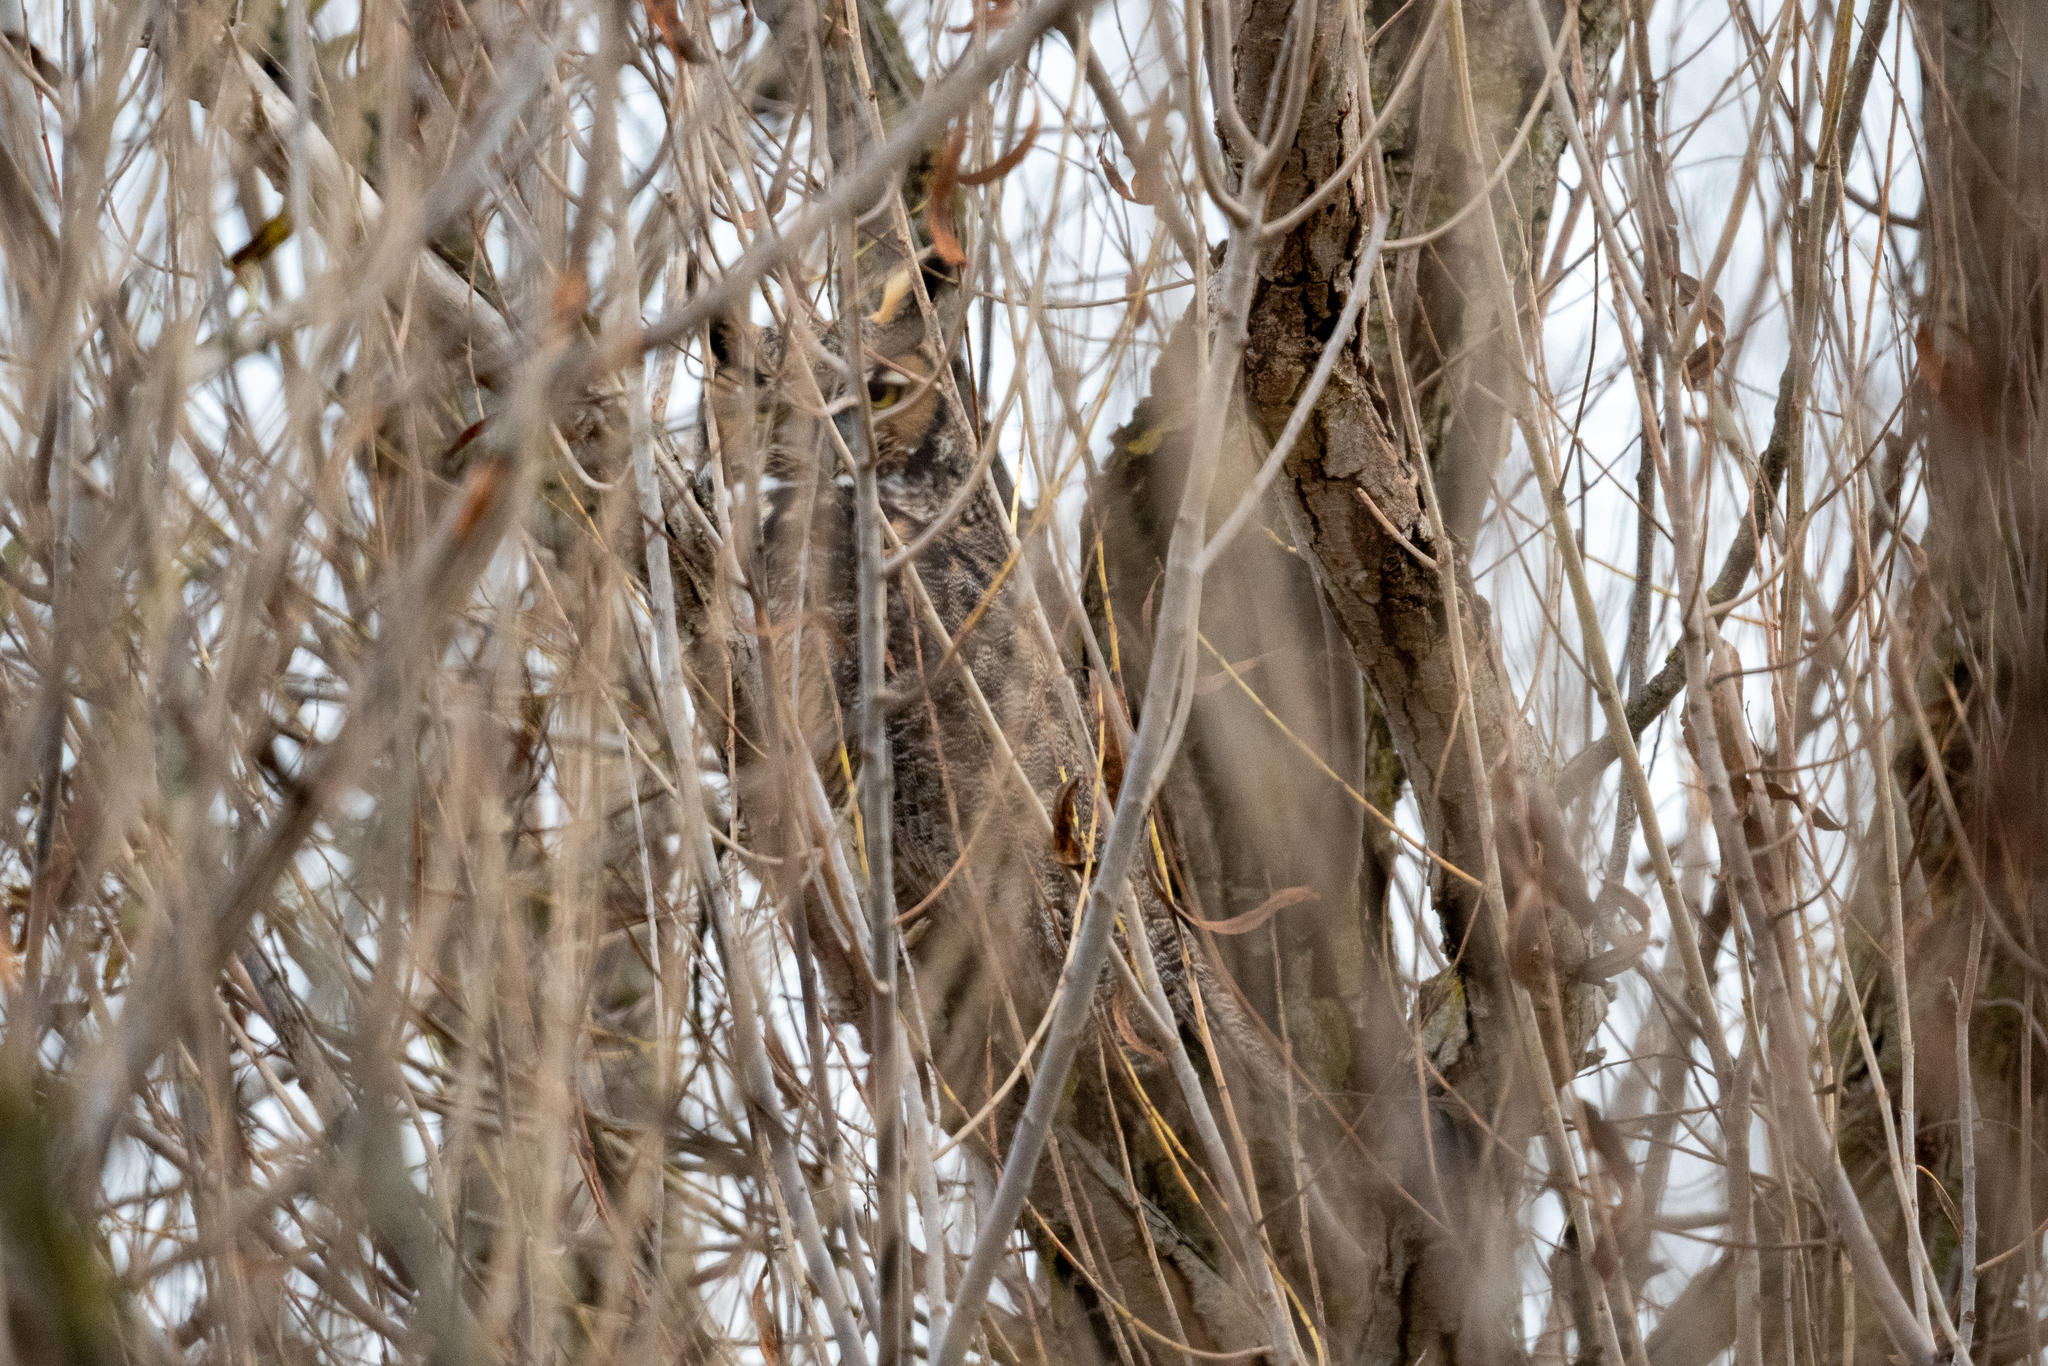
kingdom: Animalia
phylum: Chordata
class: Aves
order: Strigiformes
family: Strigidae
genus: Bubo
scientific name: Bubo virginianus
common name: Great horned owl
